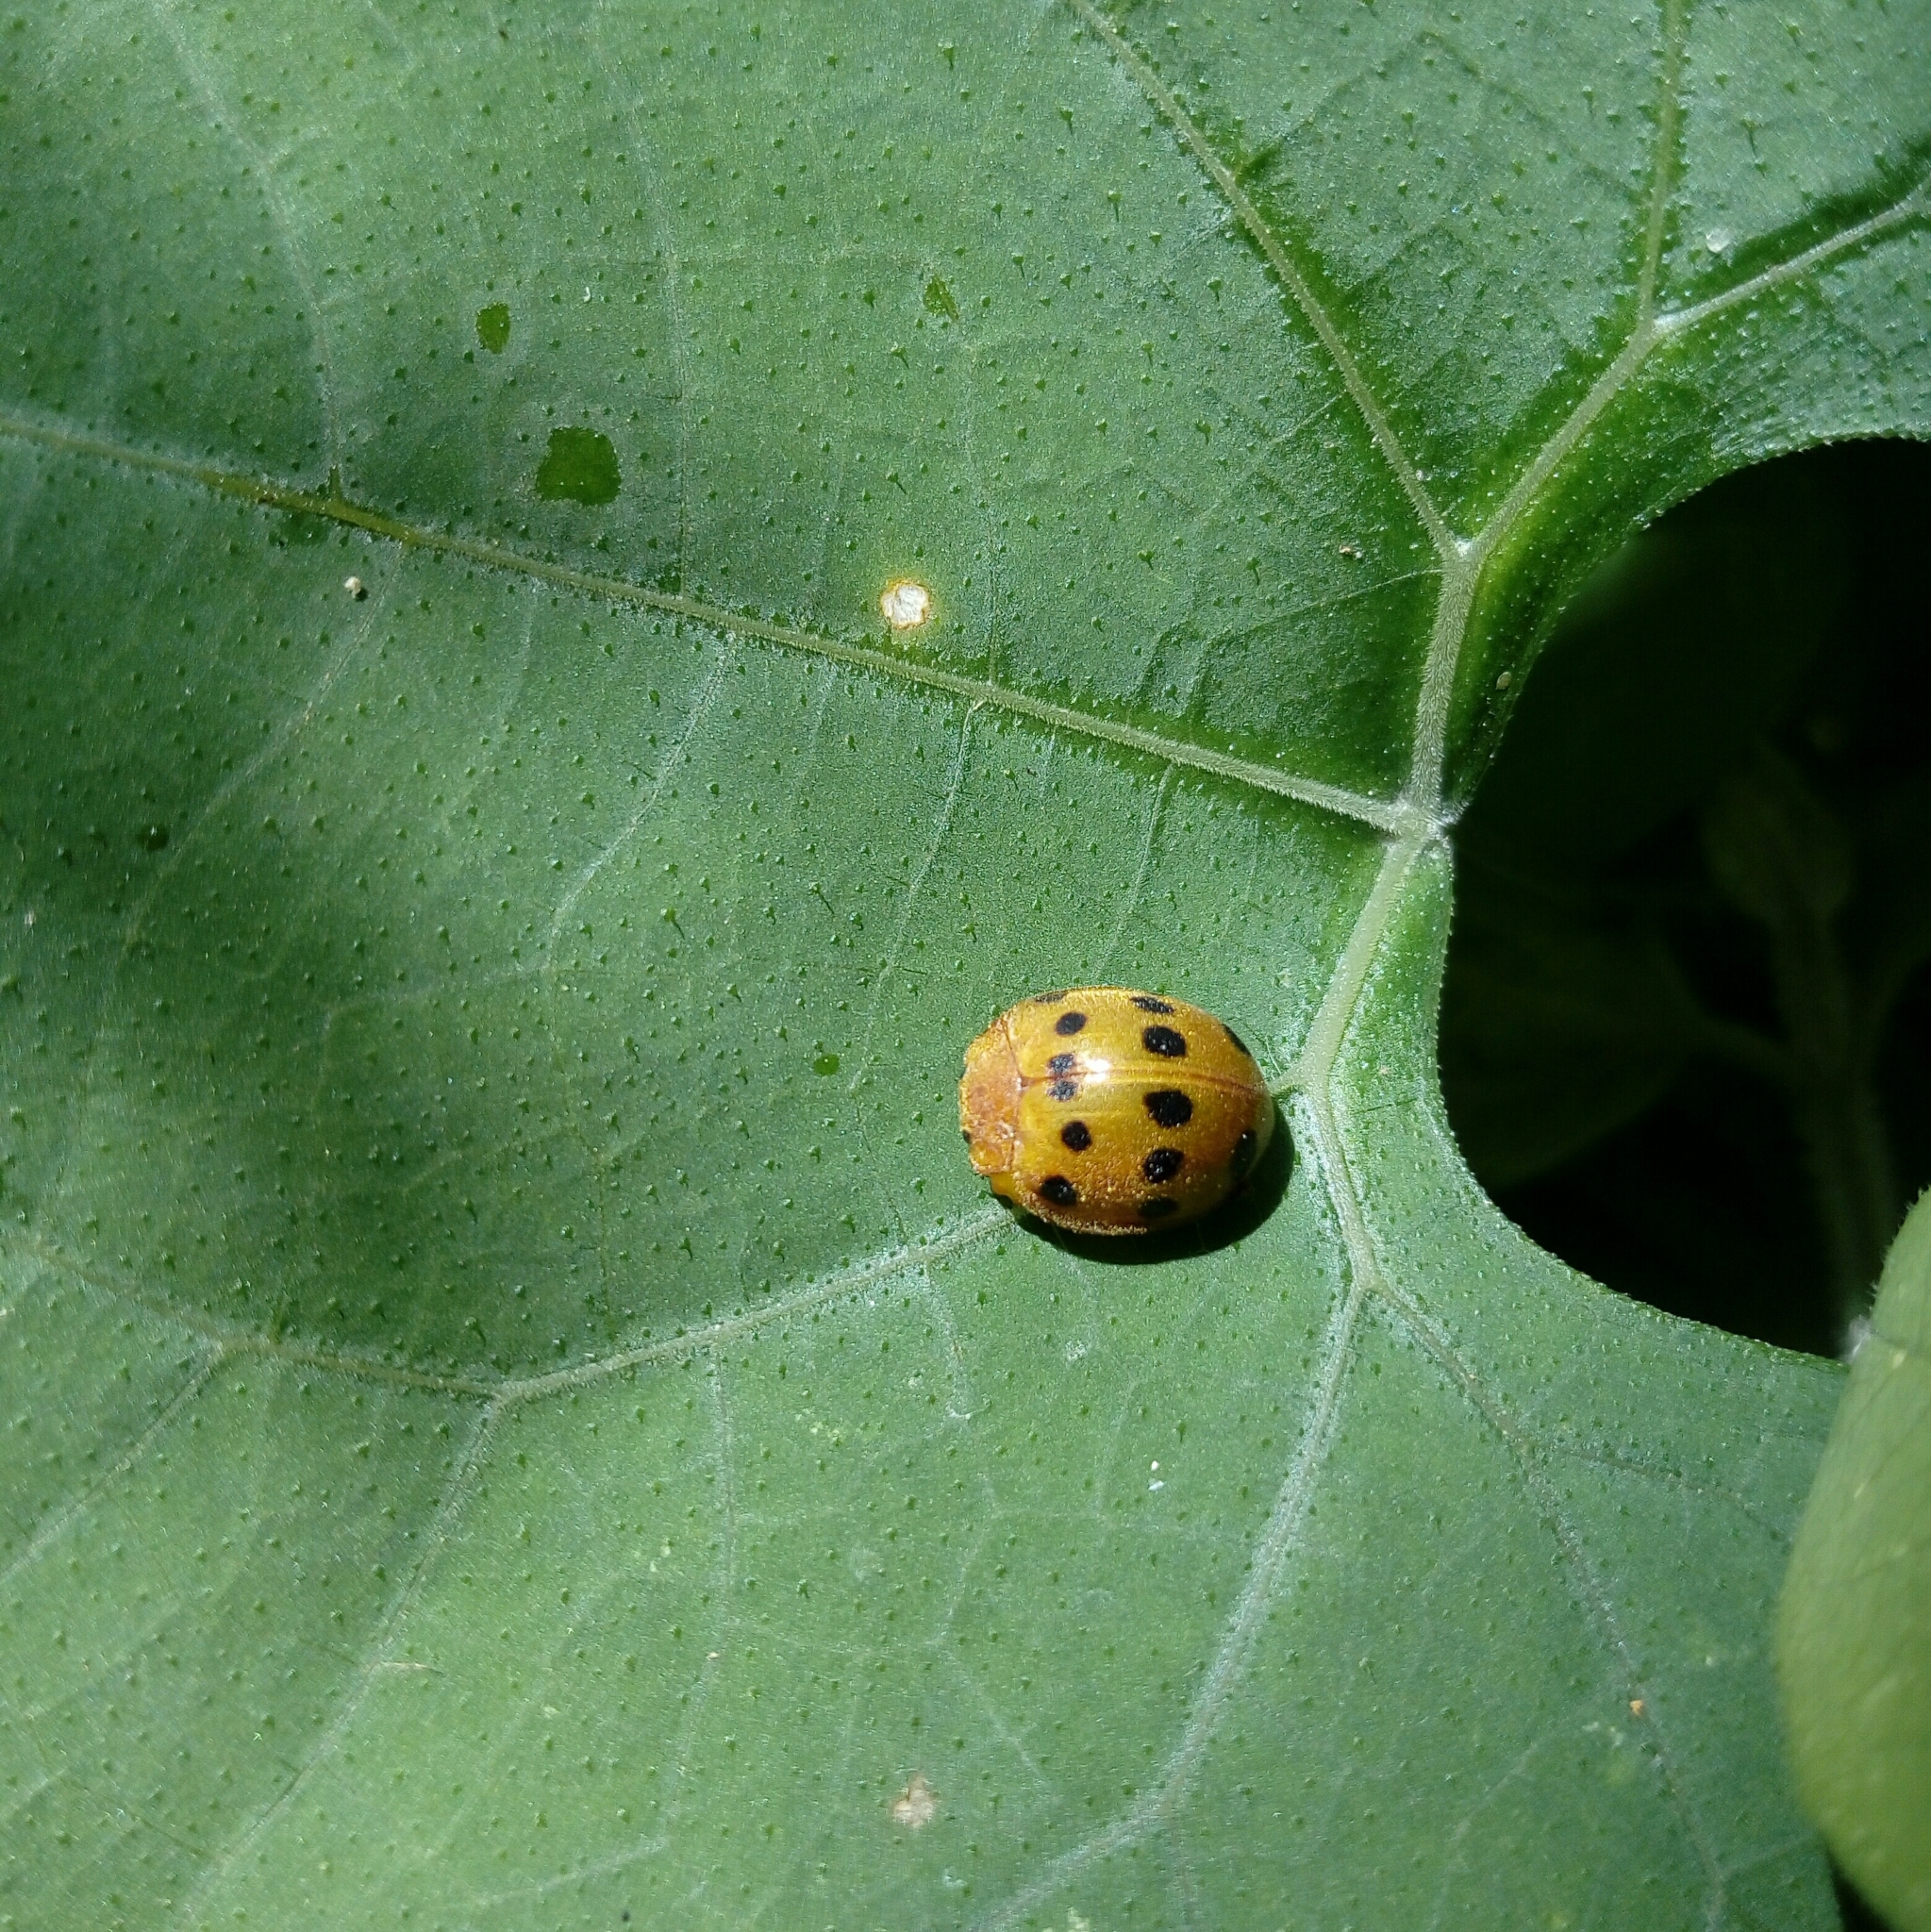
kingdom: Animalia
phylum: Arthropoda
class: Insecta
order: Coleoptera
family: Coccinellidae
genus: Epilachna
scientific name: Epilachna varivestis
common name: Ladybird beetle
